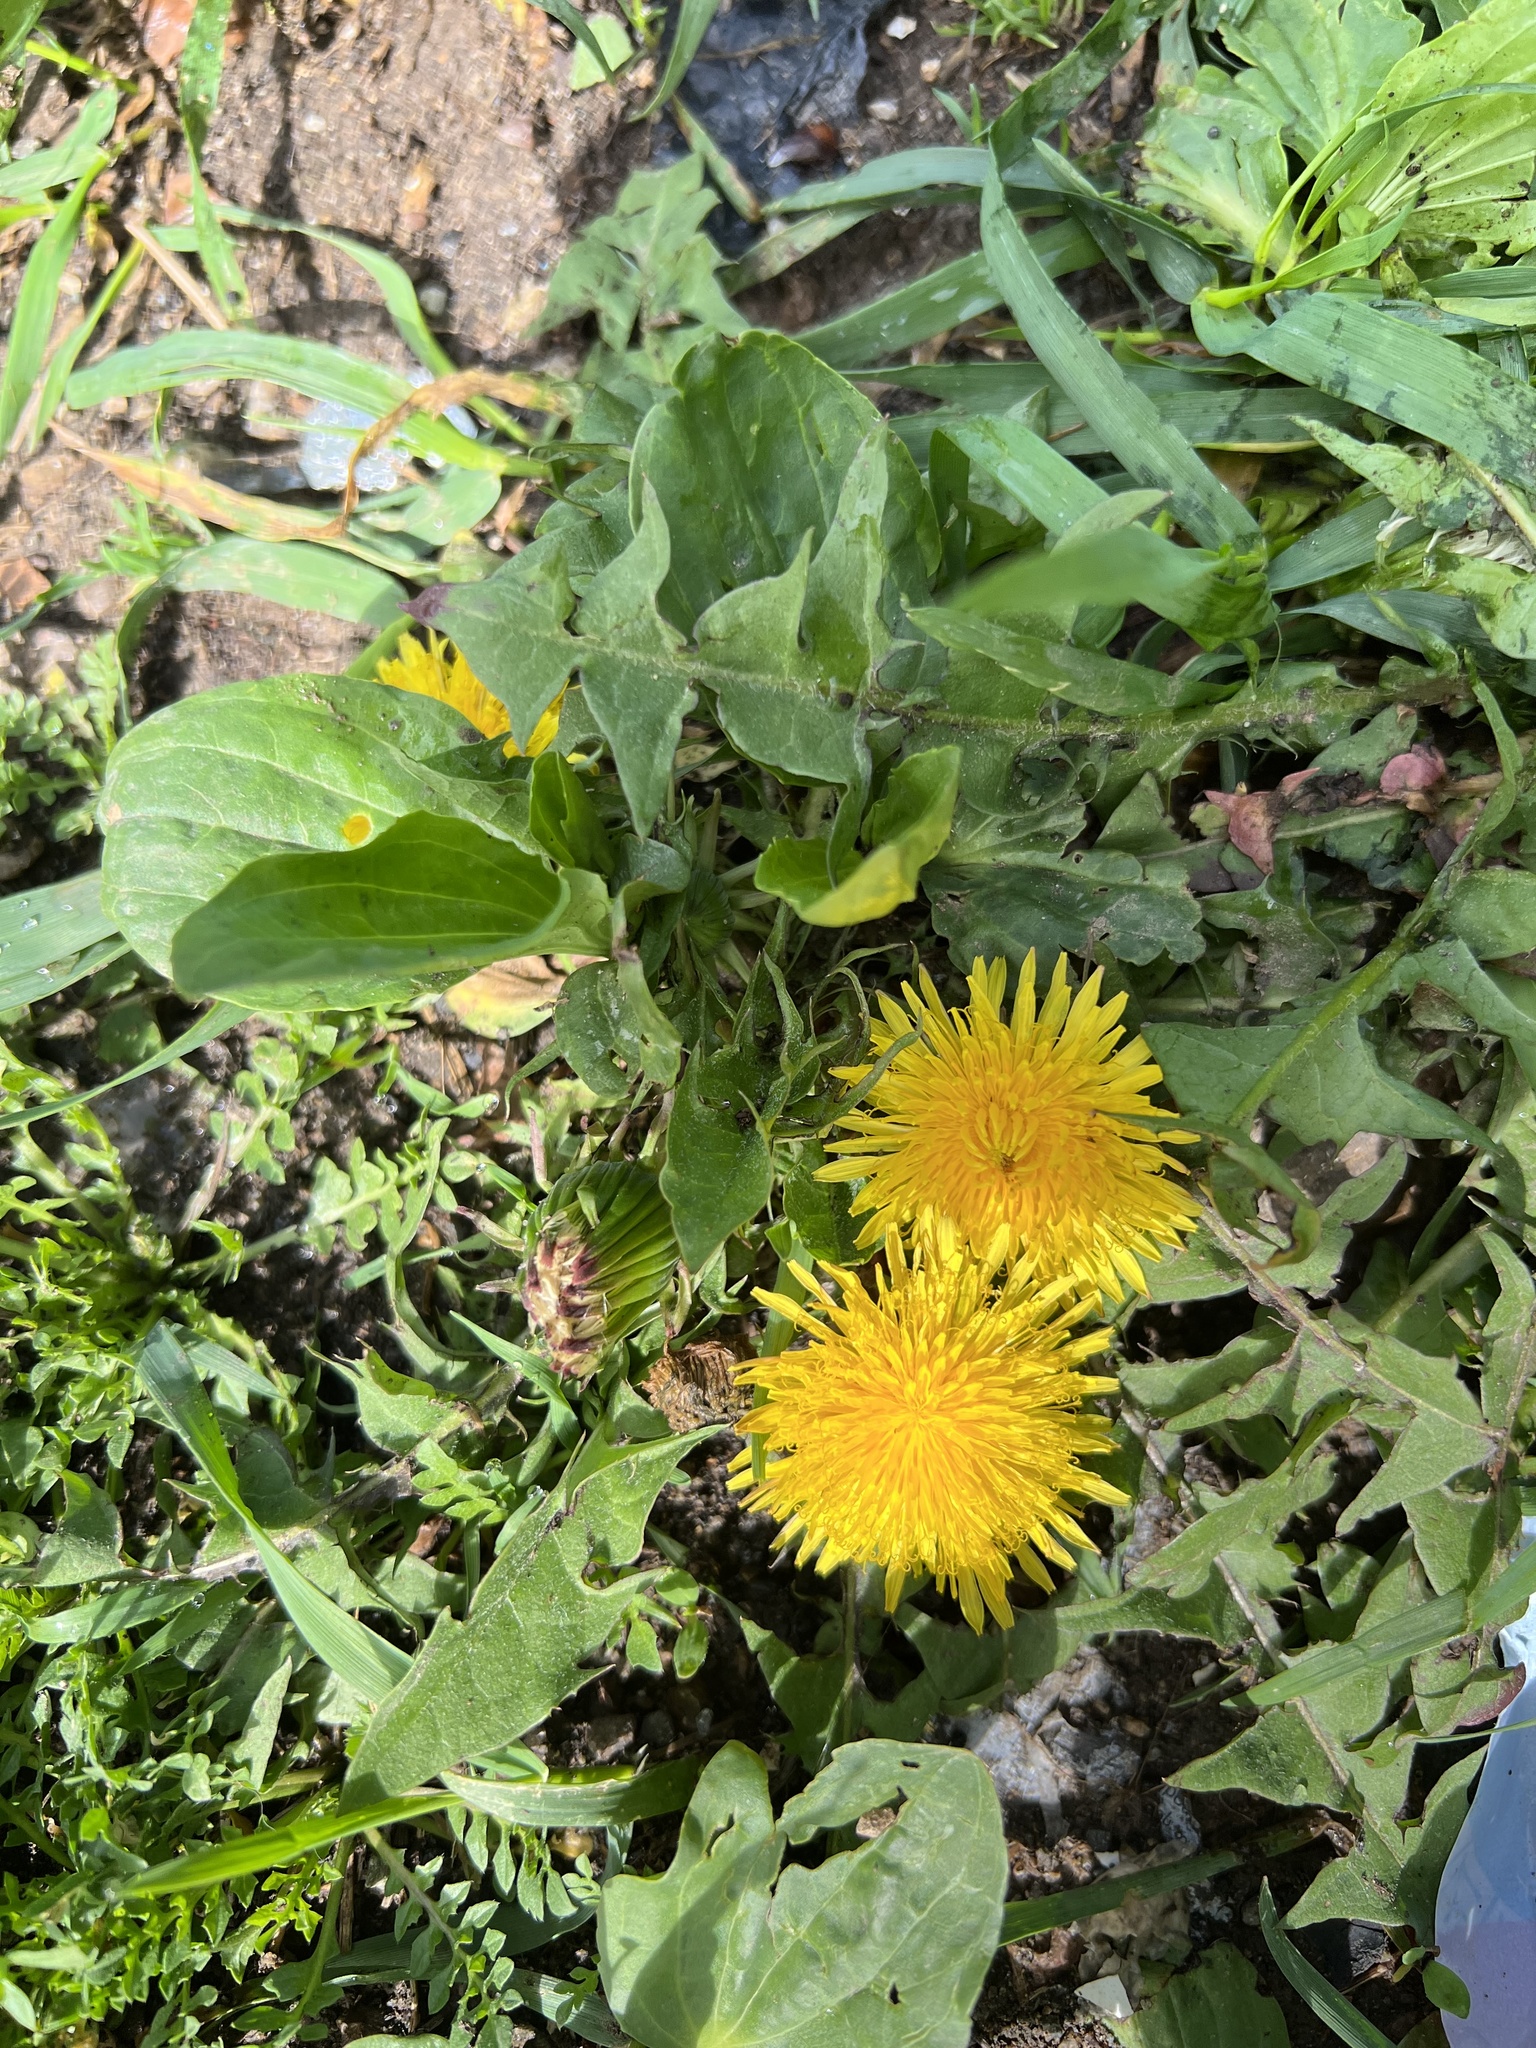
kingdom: Plantae
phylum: Tracheophyta
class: Magnoliopsida
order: Asterales
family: Asteraceae
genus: Taraxacum
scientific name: Taraxacum officinale
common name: Common dandelion
